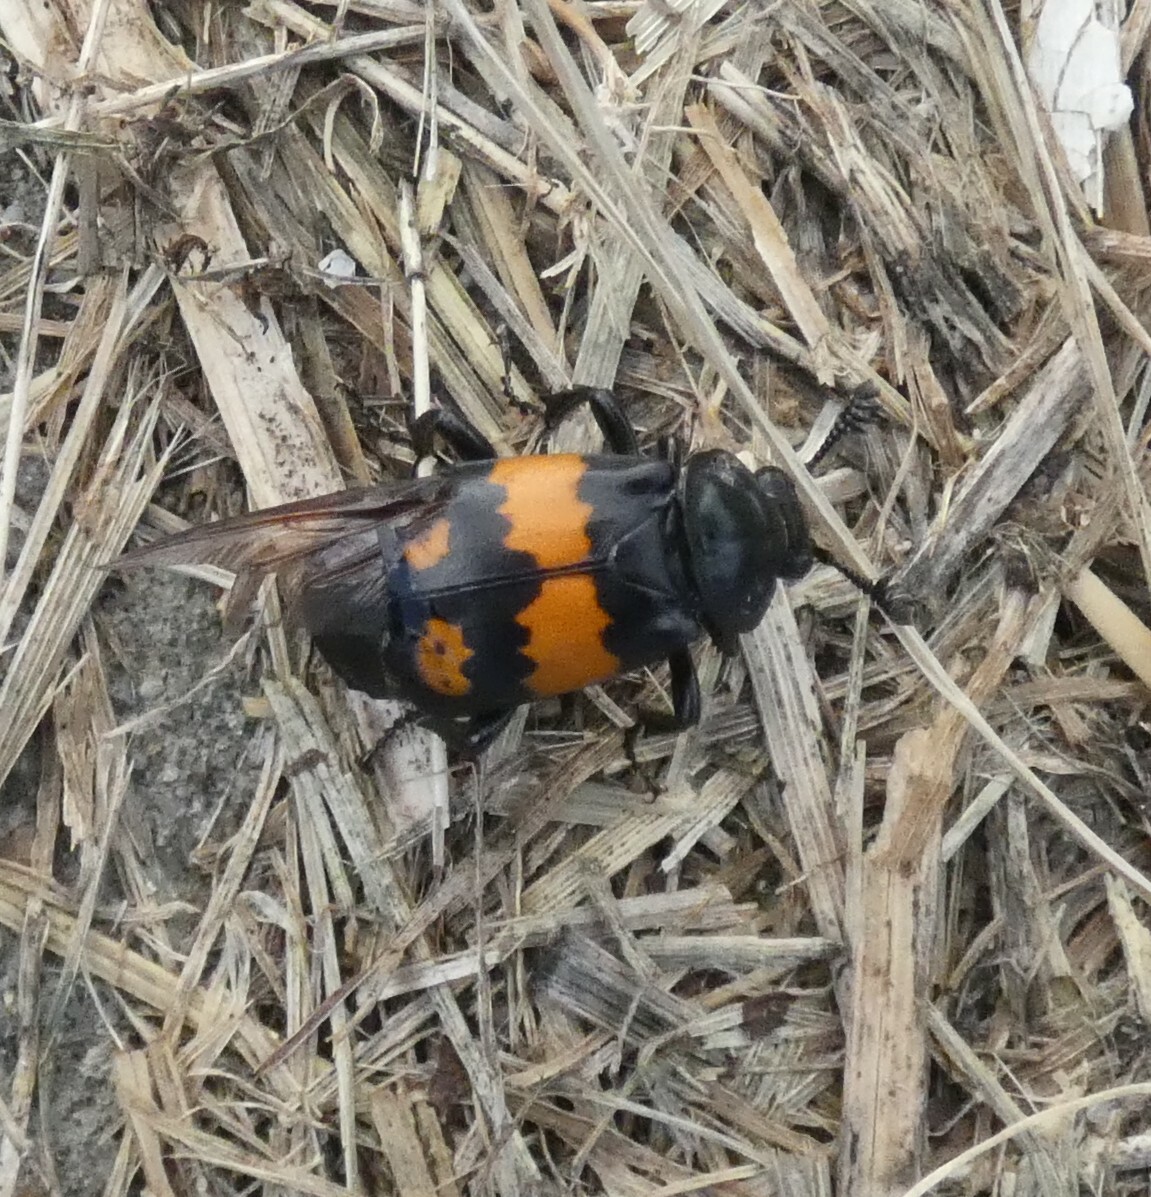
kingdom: Animalia
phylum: Arthropoda
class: Insecta
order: Coleoptera
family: Staphylinidae
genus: Nicrophorus
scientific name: Nicrophorus vespilloides
